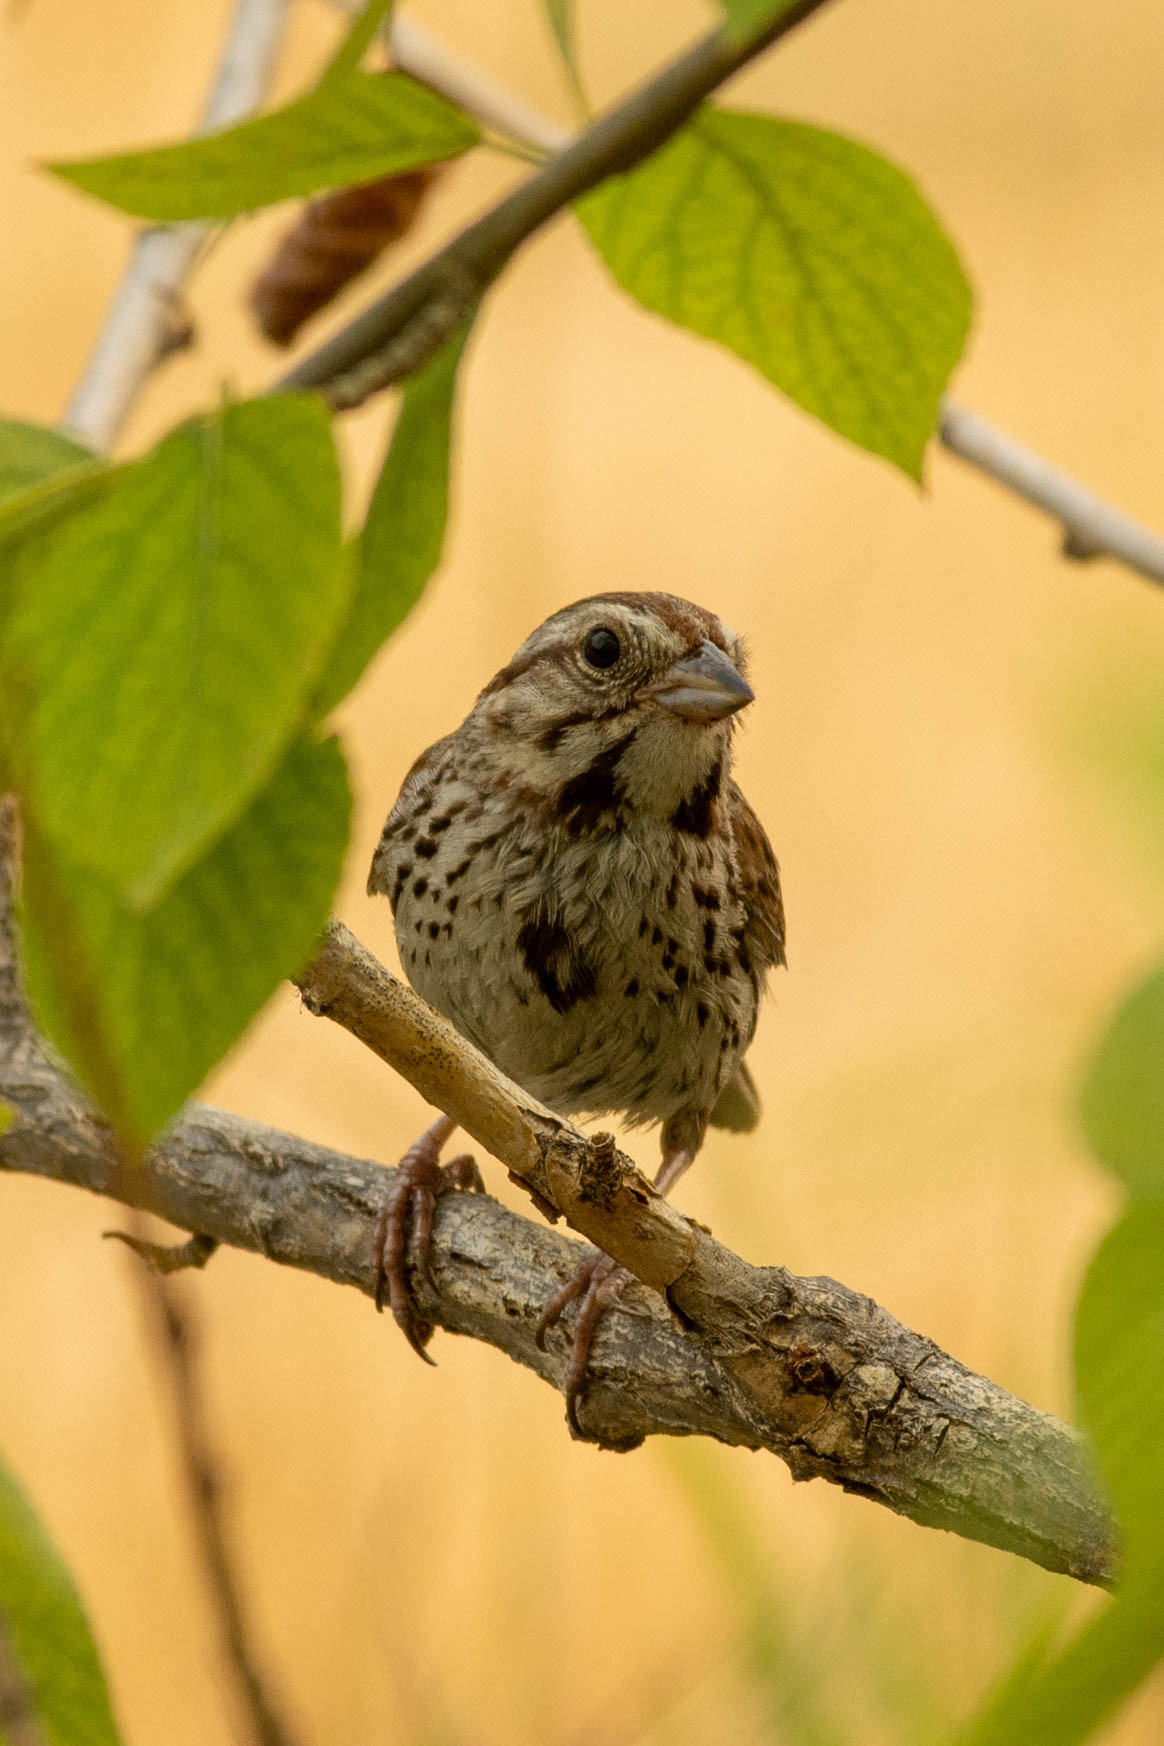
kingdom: Animalia
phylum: Chordata
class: Aves
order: Passeriformes
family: Passerellidae
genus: Melospiza
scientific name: Melospiza melodia
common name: Song sparrow
